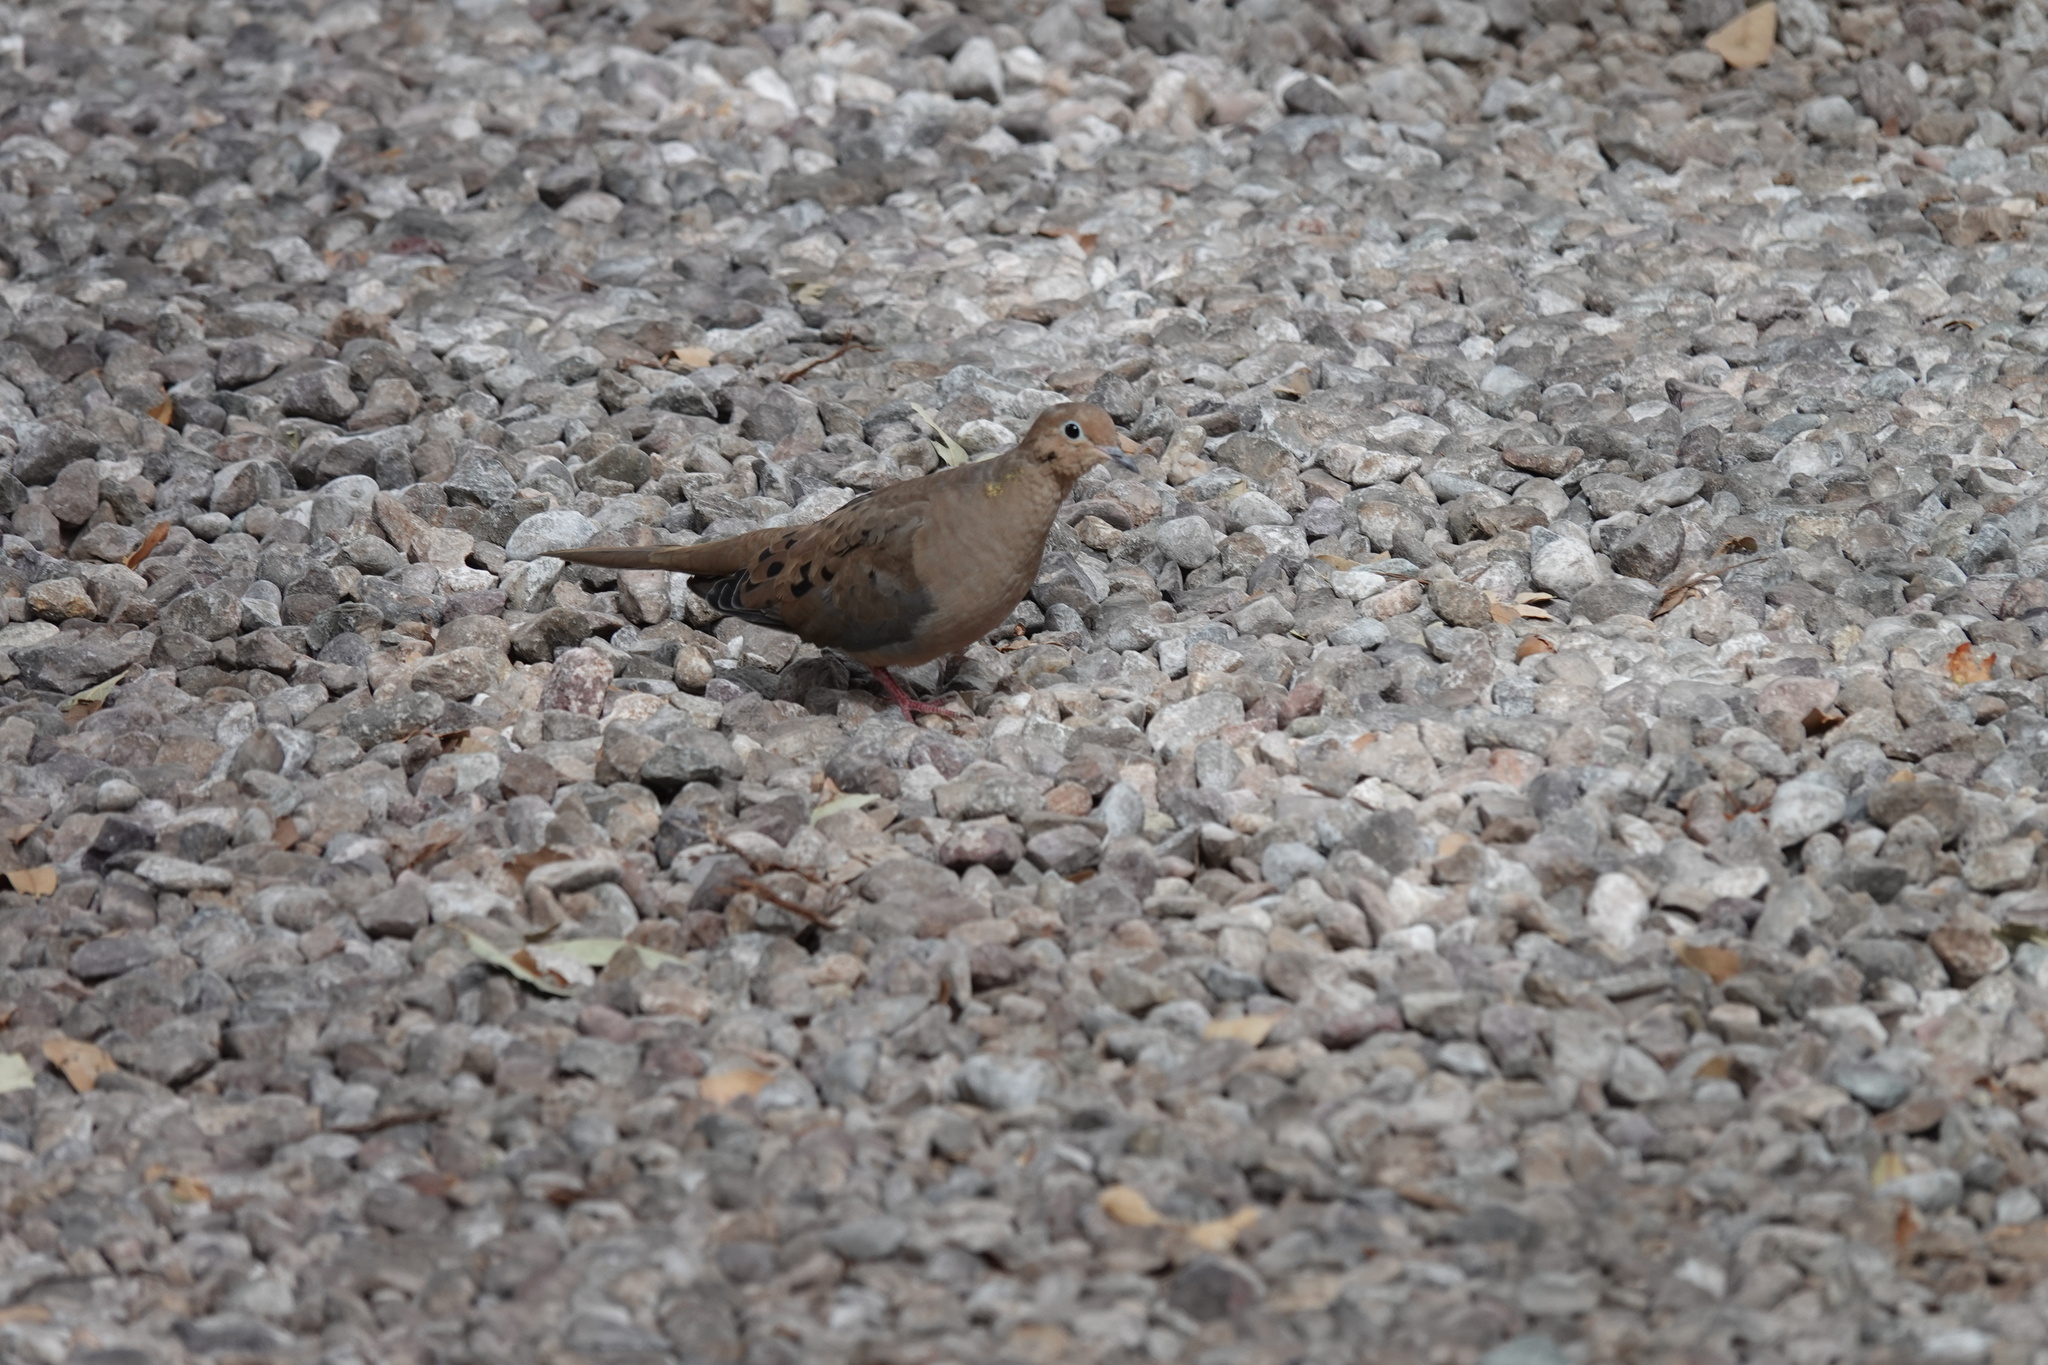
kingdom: Animalia
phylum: Chordata
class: Aves
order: Columbiformes
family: Columbidae
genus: Zenaida
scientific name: Zenaida macroura
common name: Mourning dove
